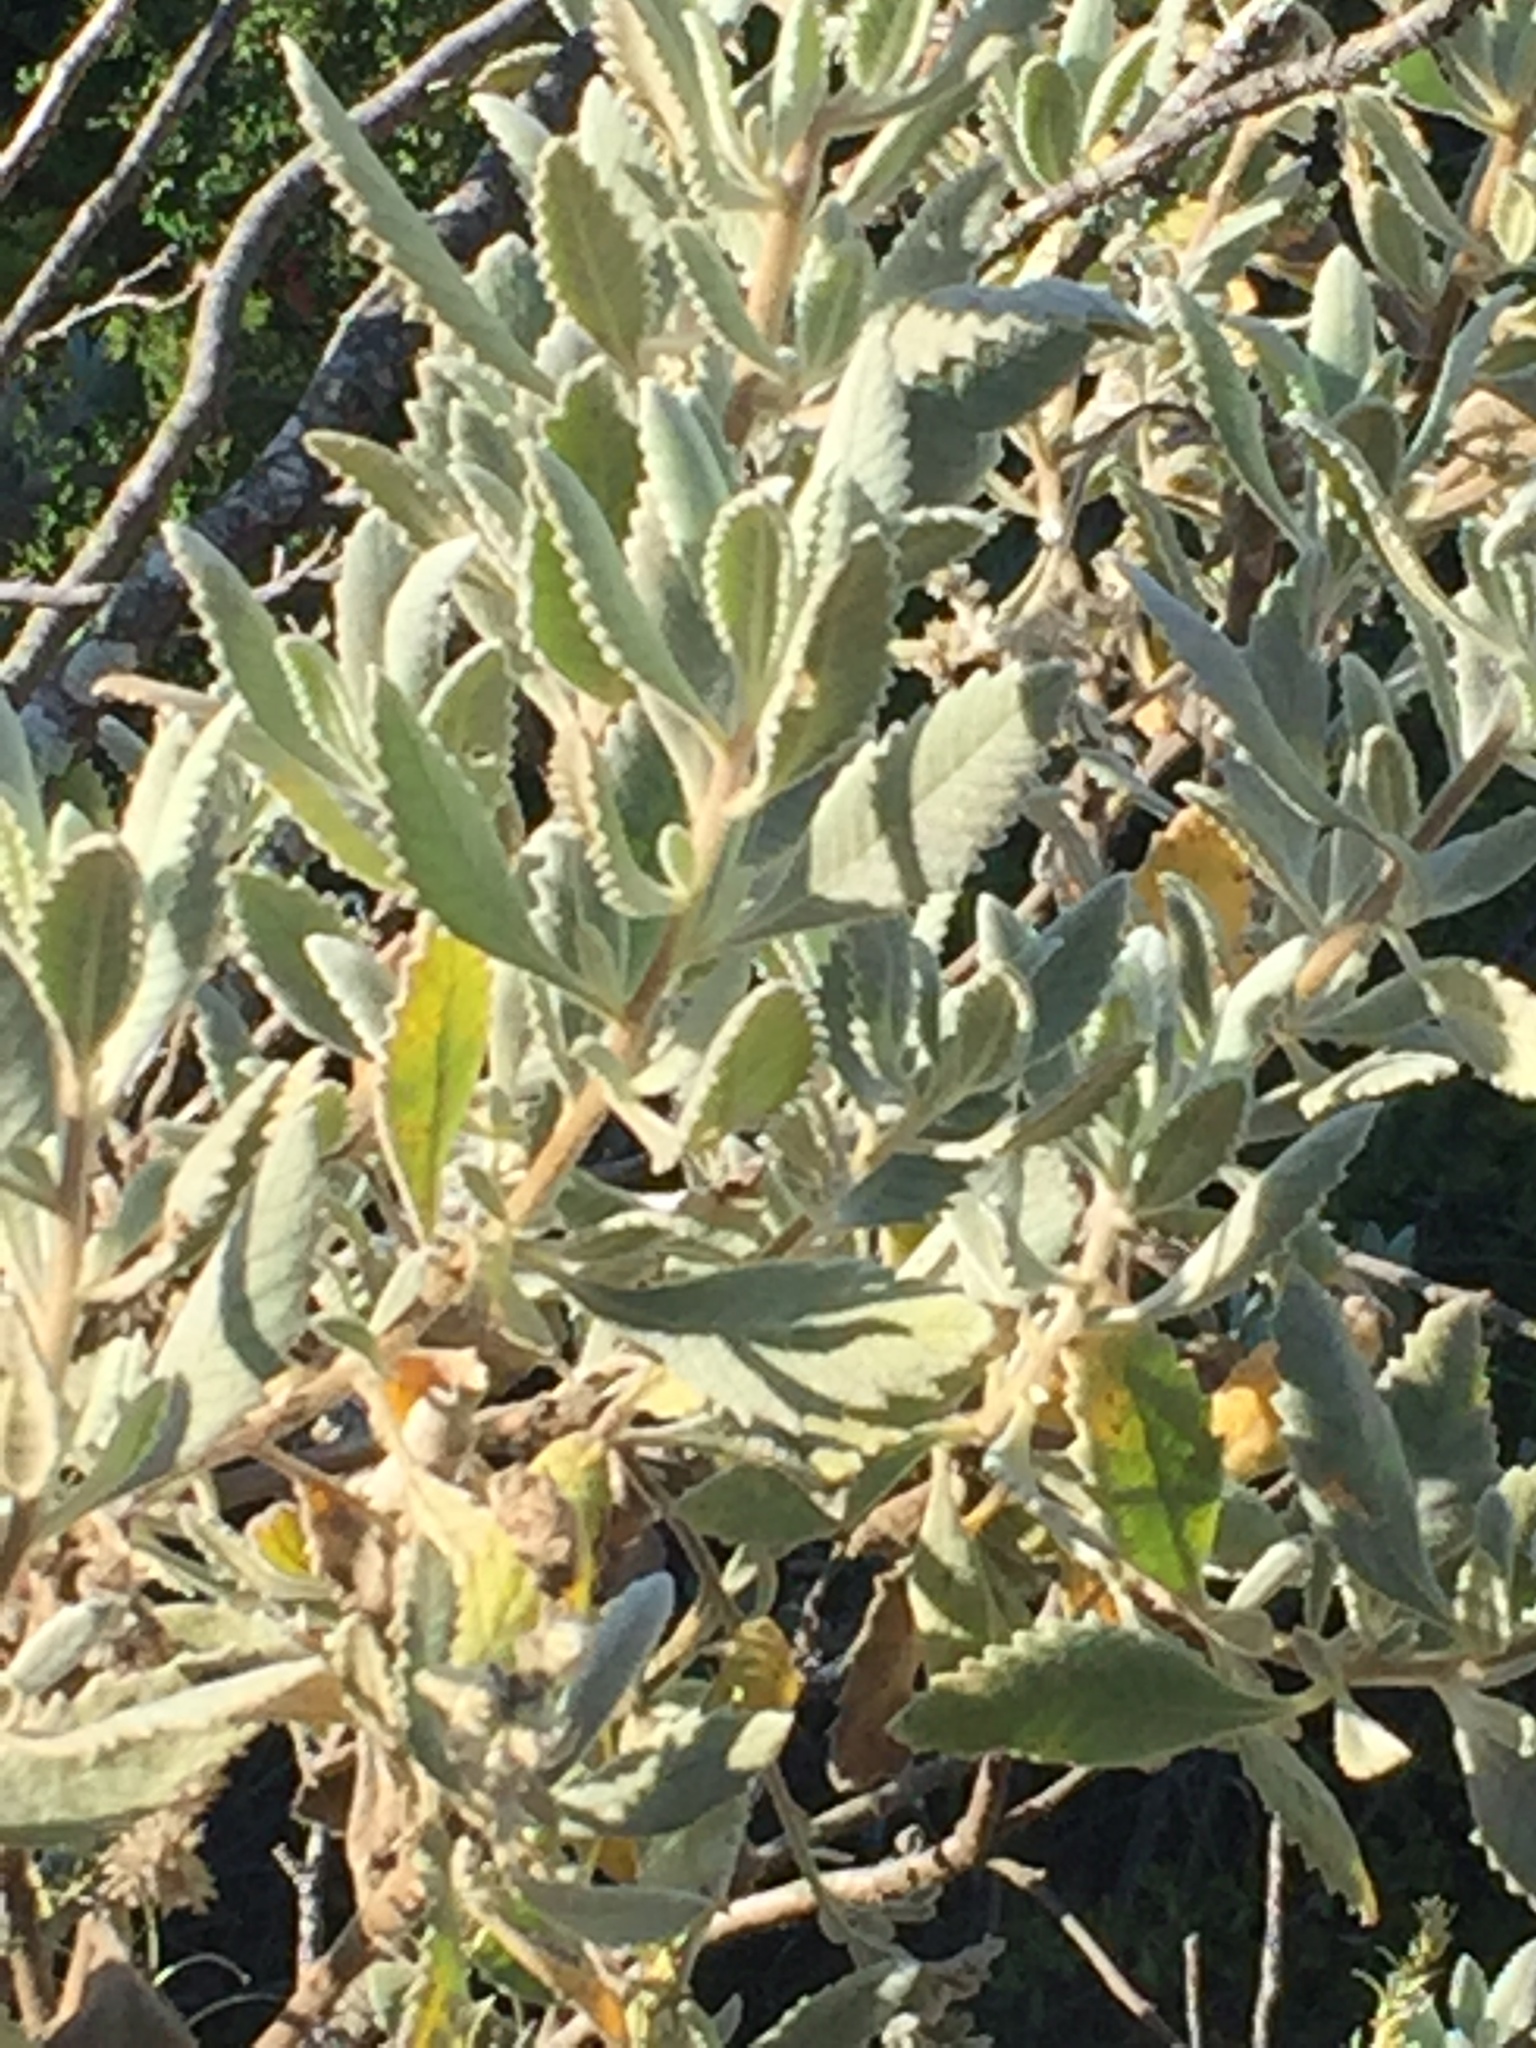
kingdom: Plantae
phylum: Tracheophyta
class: Magnoliopsida
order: Boraginales
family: Namaceae
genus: Eriodictyon
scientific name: Eriodictyon crassifolium
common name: Thick-leaf yerba-santa
